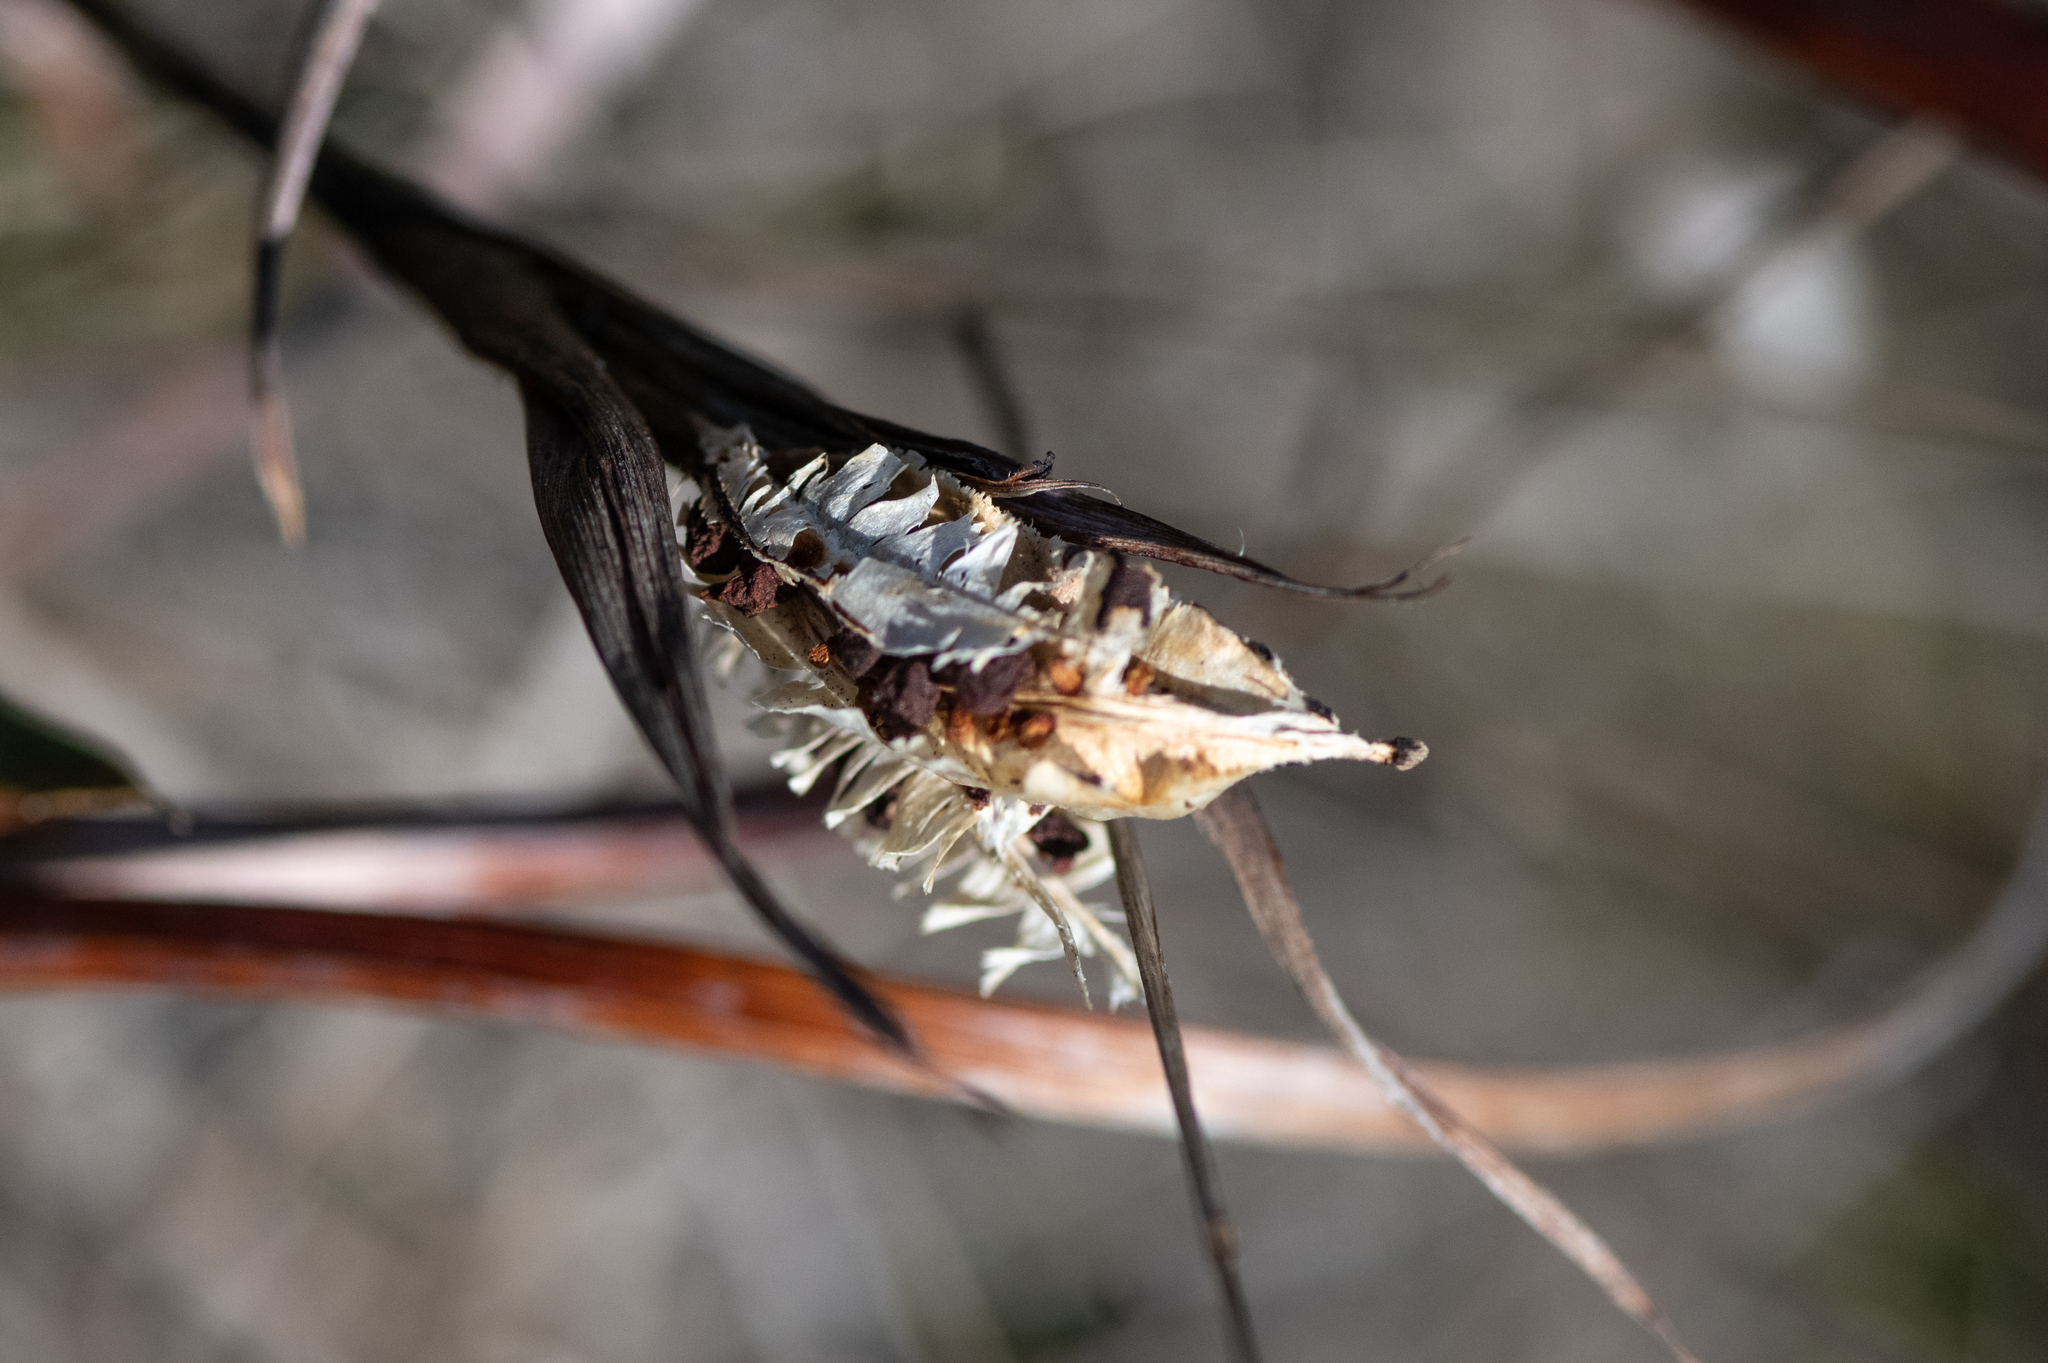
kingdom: Plantae
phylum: Tracheophyta
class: Liliopsida
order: Asparagales
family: Iridaceae
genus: Iris
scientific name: Iris douglasiana
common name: Marin iris
